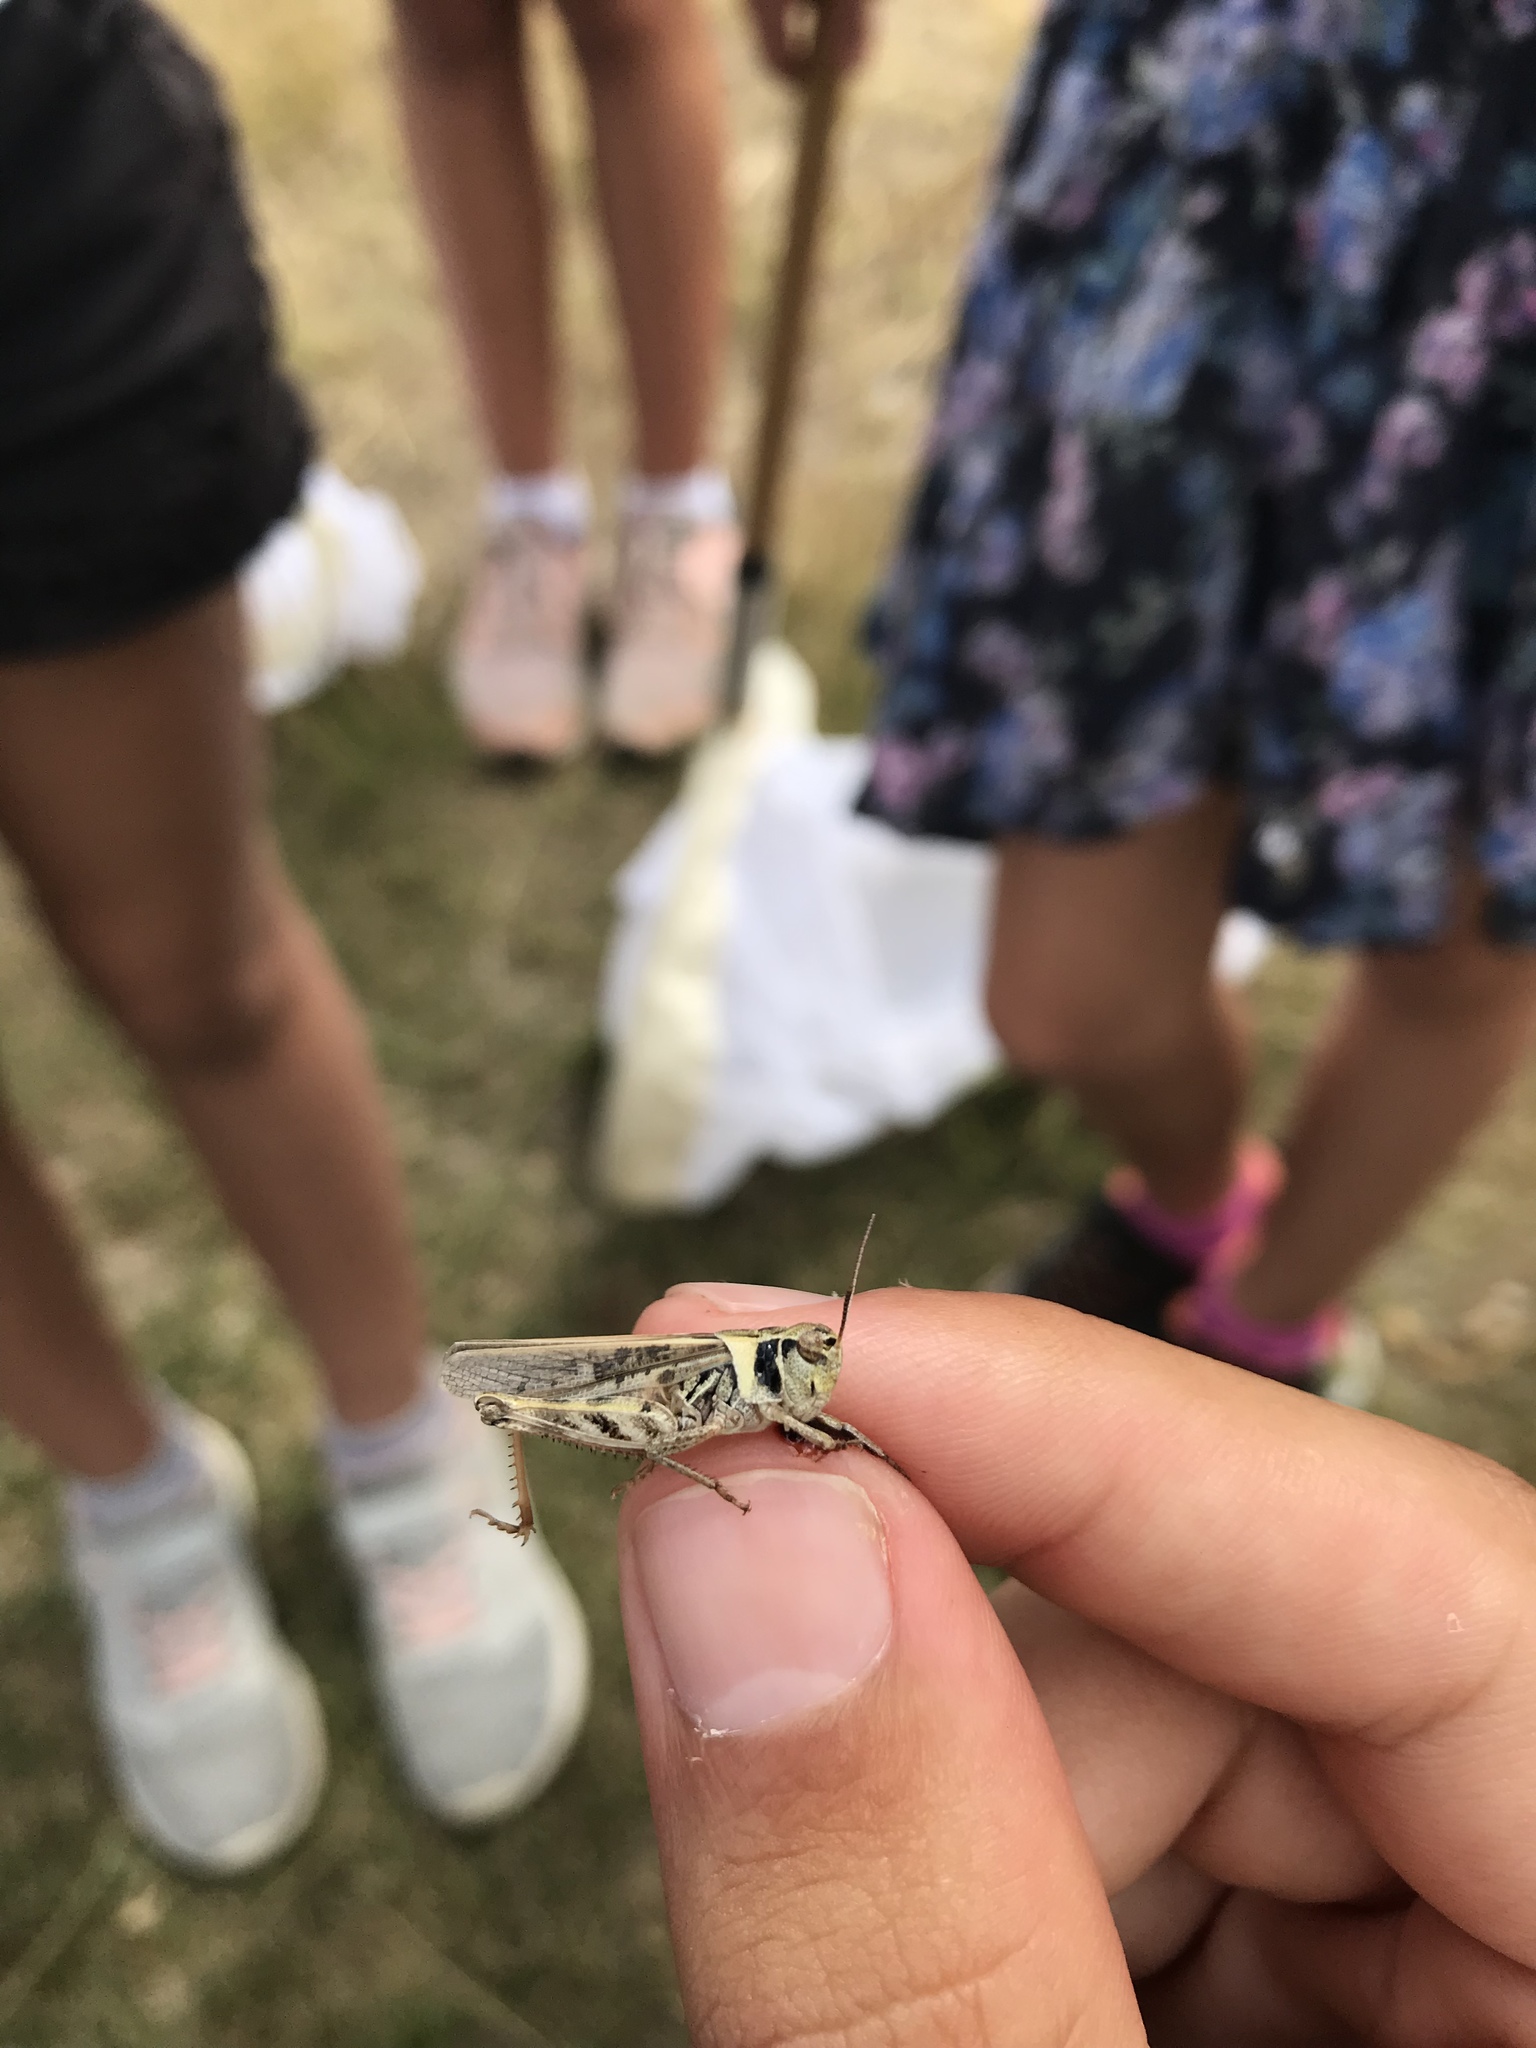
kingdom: Animalia
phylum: Arthropoda
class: Insecta
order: Orthoptera
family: Acrididae
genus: Camnula
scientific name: Camnula pellucida
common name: Clear-winged grasshopper
